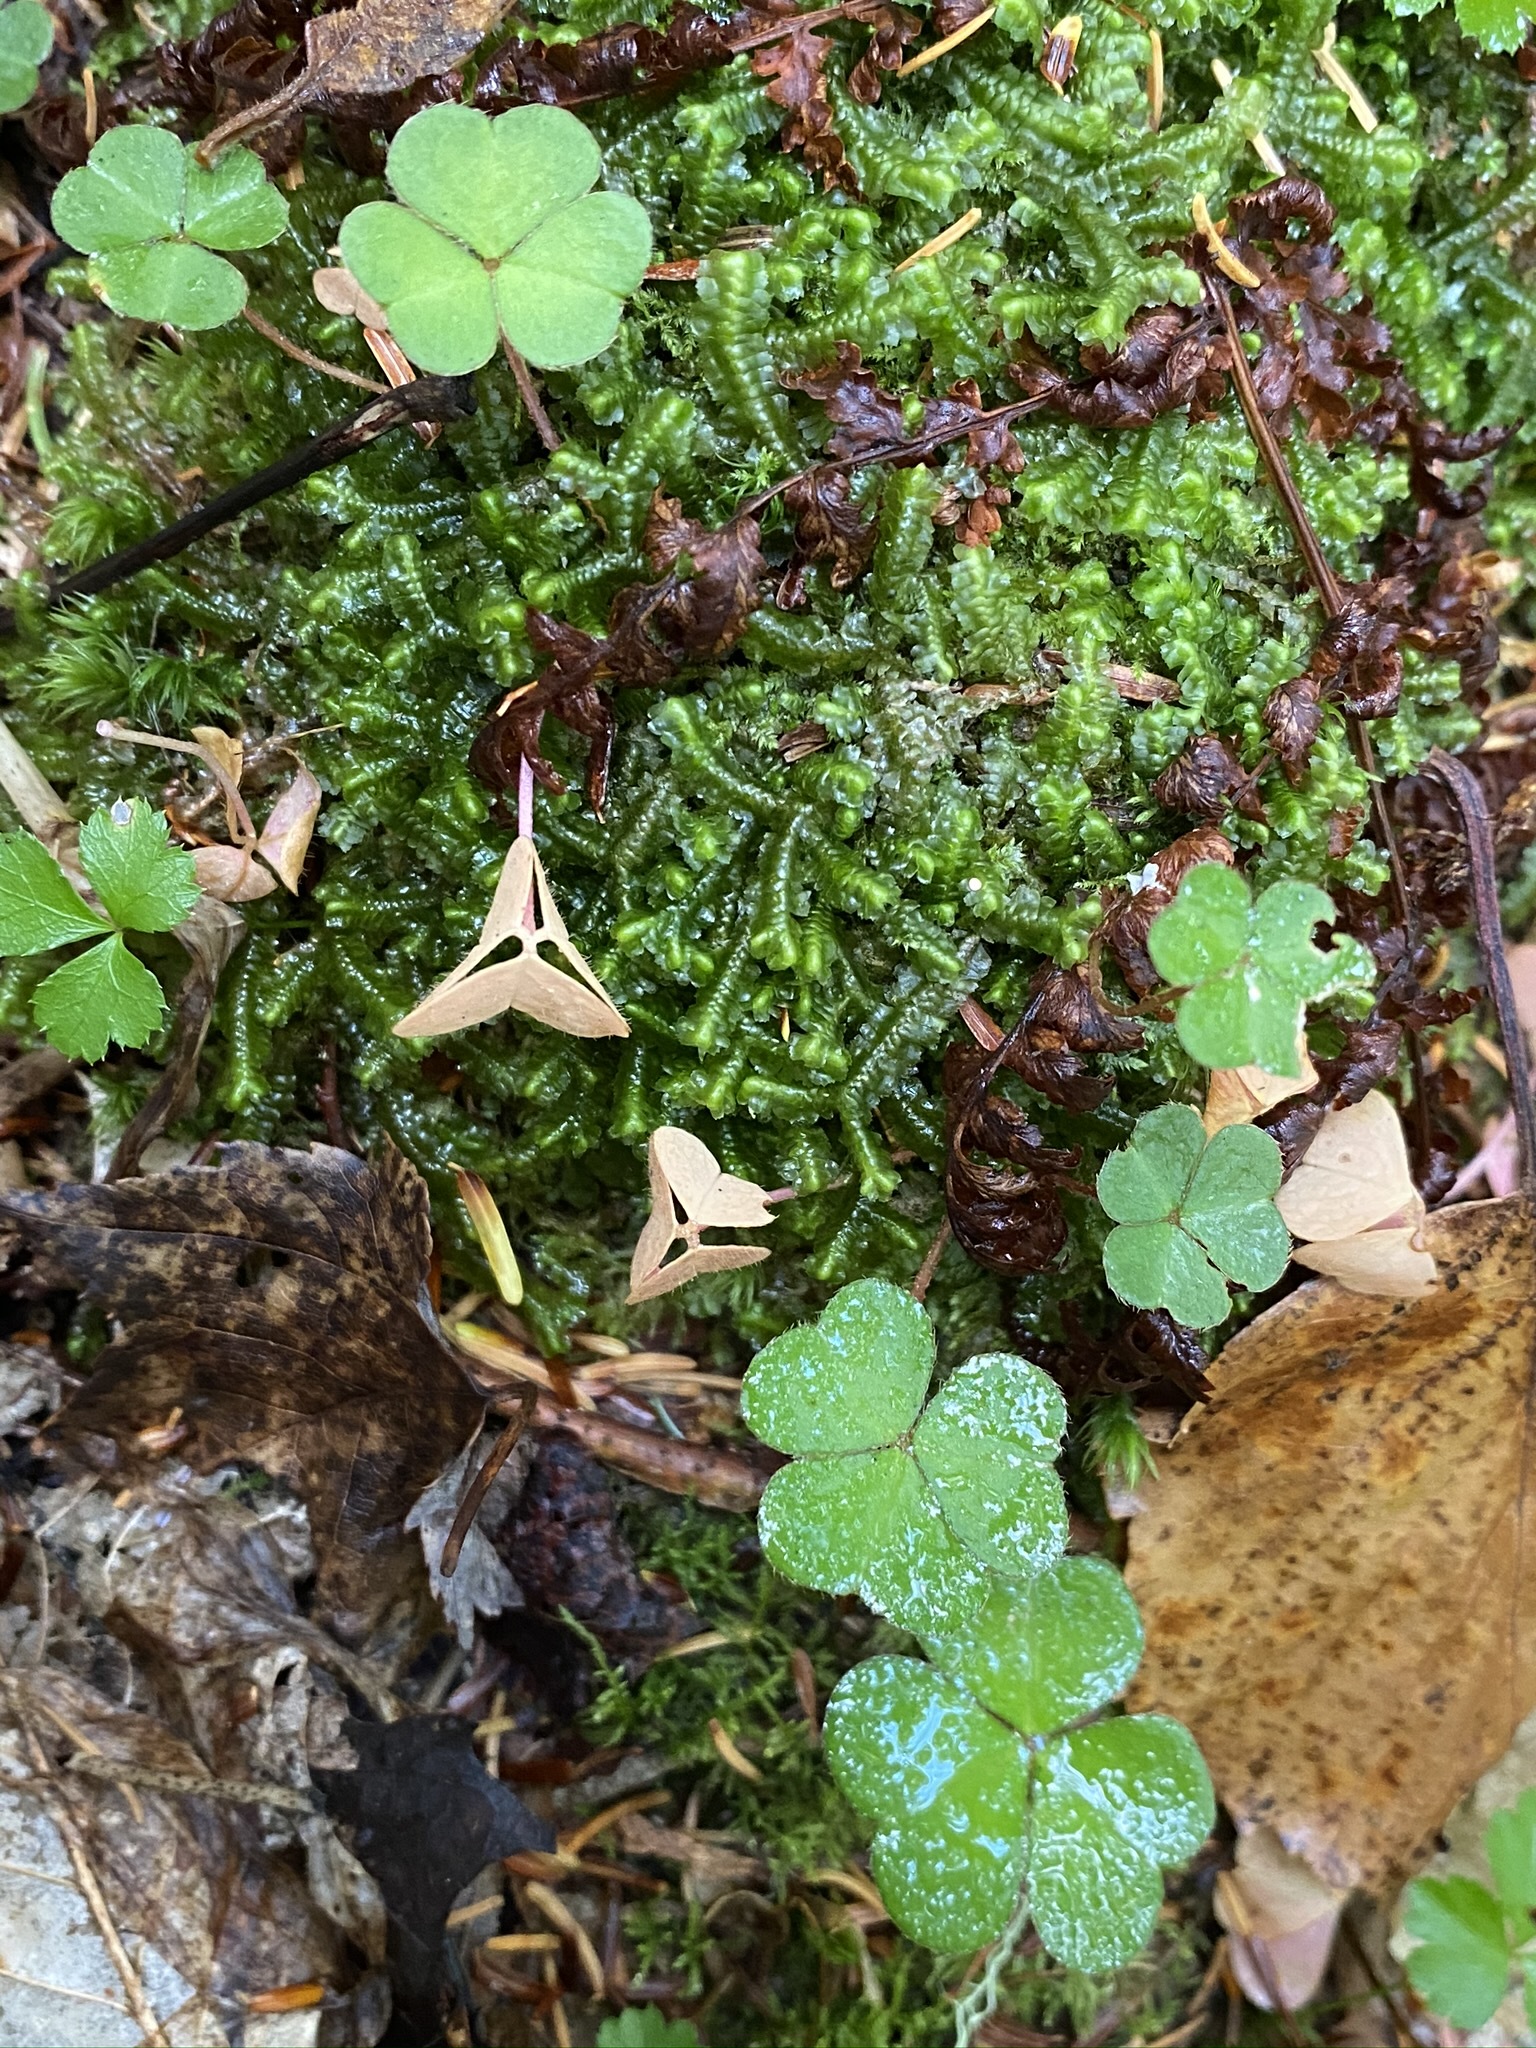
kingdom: Plantae
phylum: Tracheophyta
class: Magnoliopsida
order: Oxalidales
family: Oxalidaceae
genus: Oxalis
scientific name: Oxalis montana
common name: American wood-sorrel
